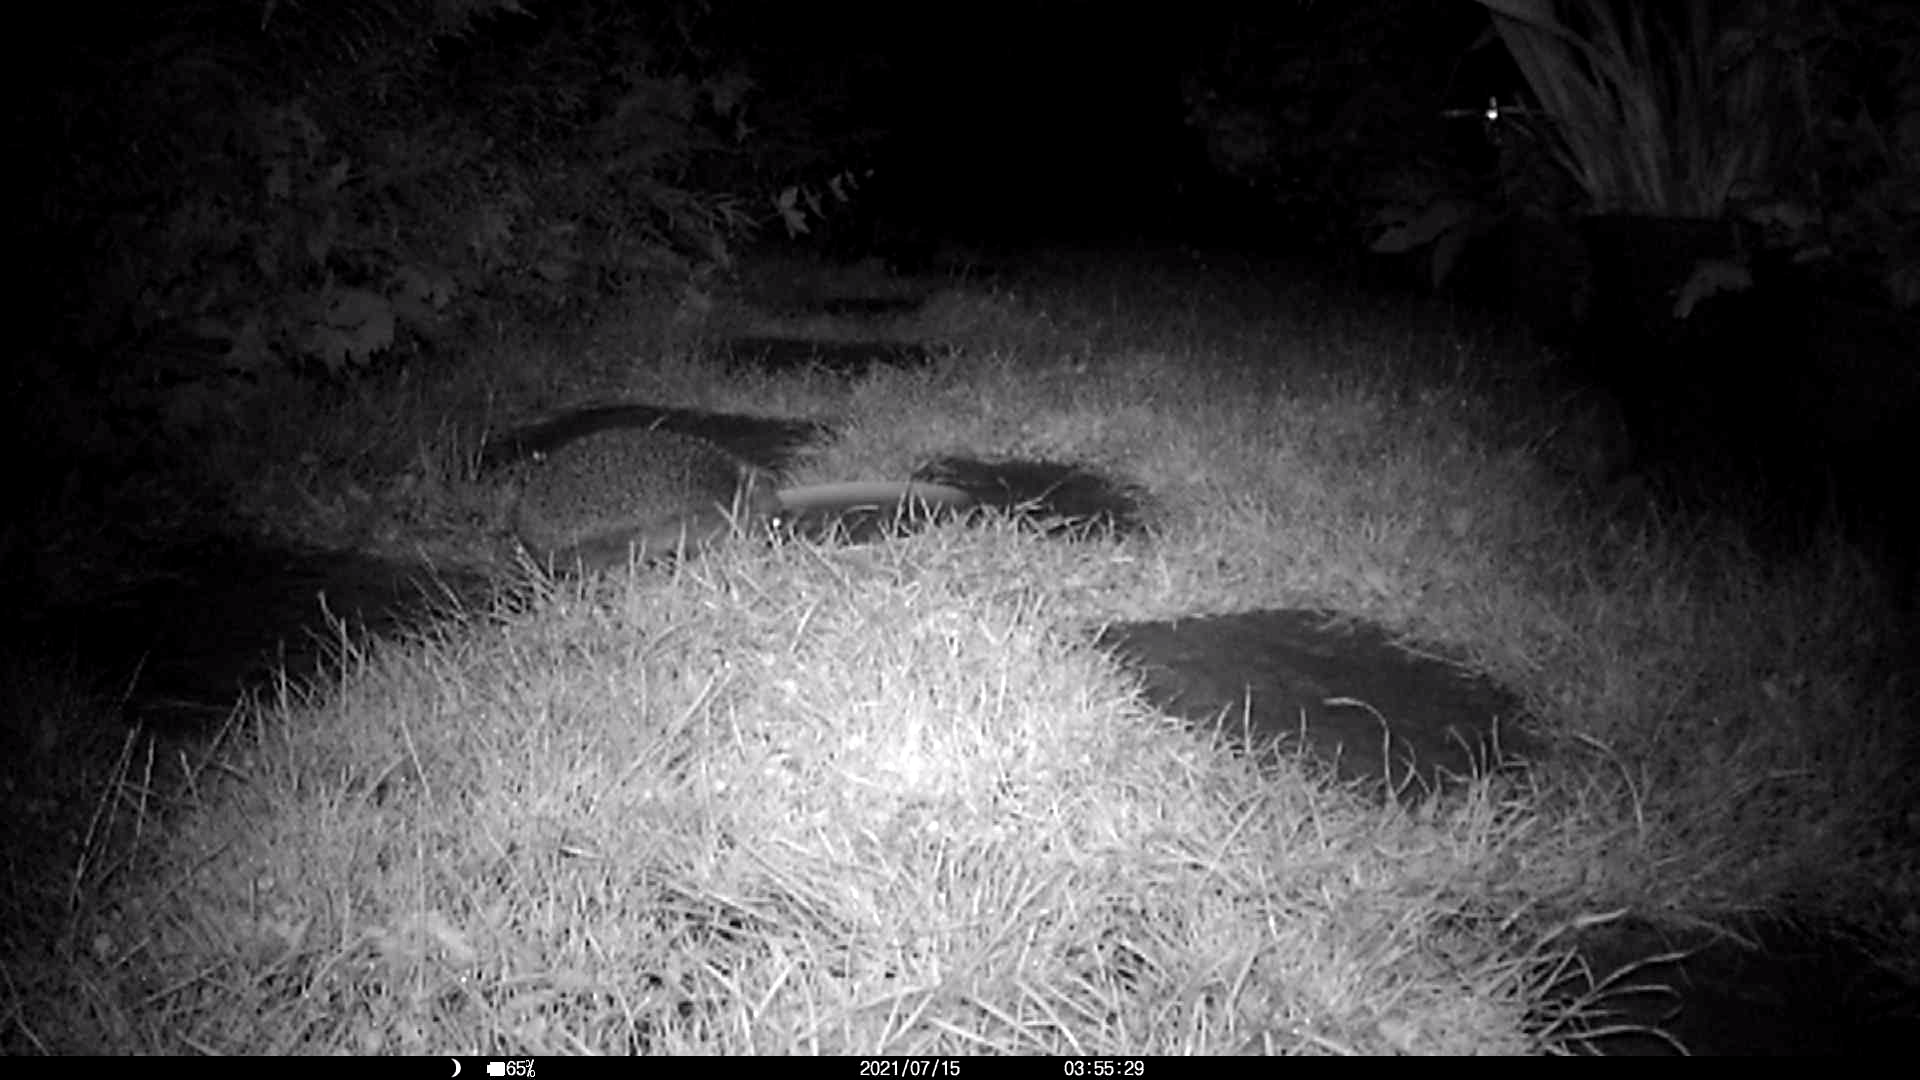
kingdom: Animalia
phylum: Chordata
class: Mammalia
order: Erinaceomorpha
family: Erinaceidae
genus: Erinaceus
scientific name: Erinaceus europaeus
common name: West european hedgehog
